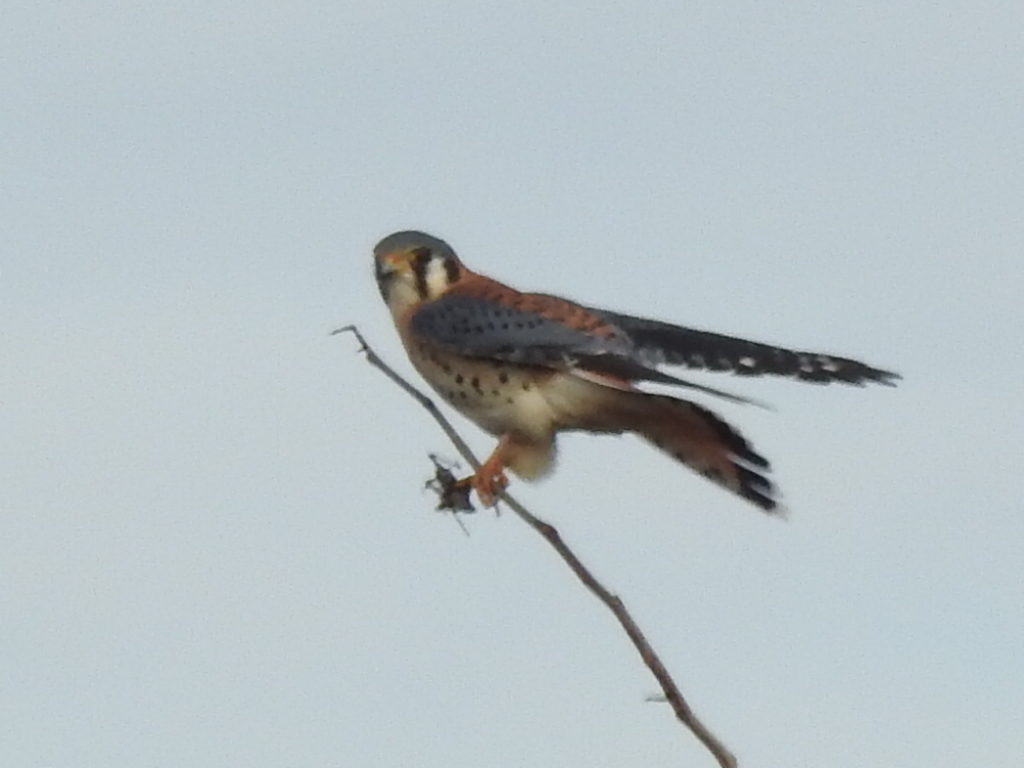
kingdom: Animalia
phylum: Chordata
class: Aves
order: Falconiformes
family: Falconidae
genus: Falco
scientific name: Falco sparverius
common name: American kestrel
